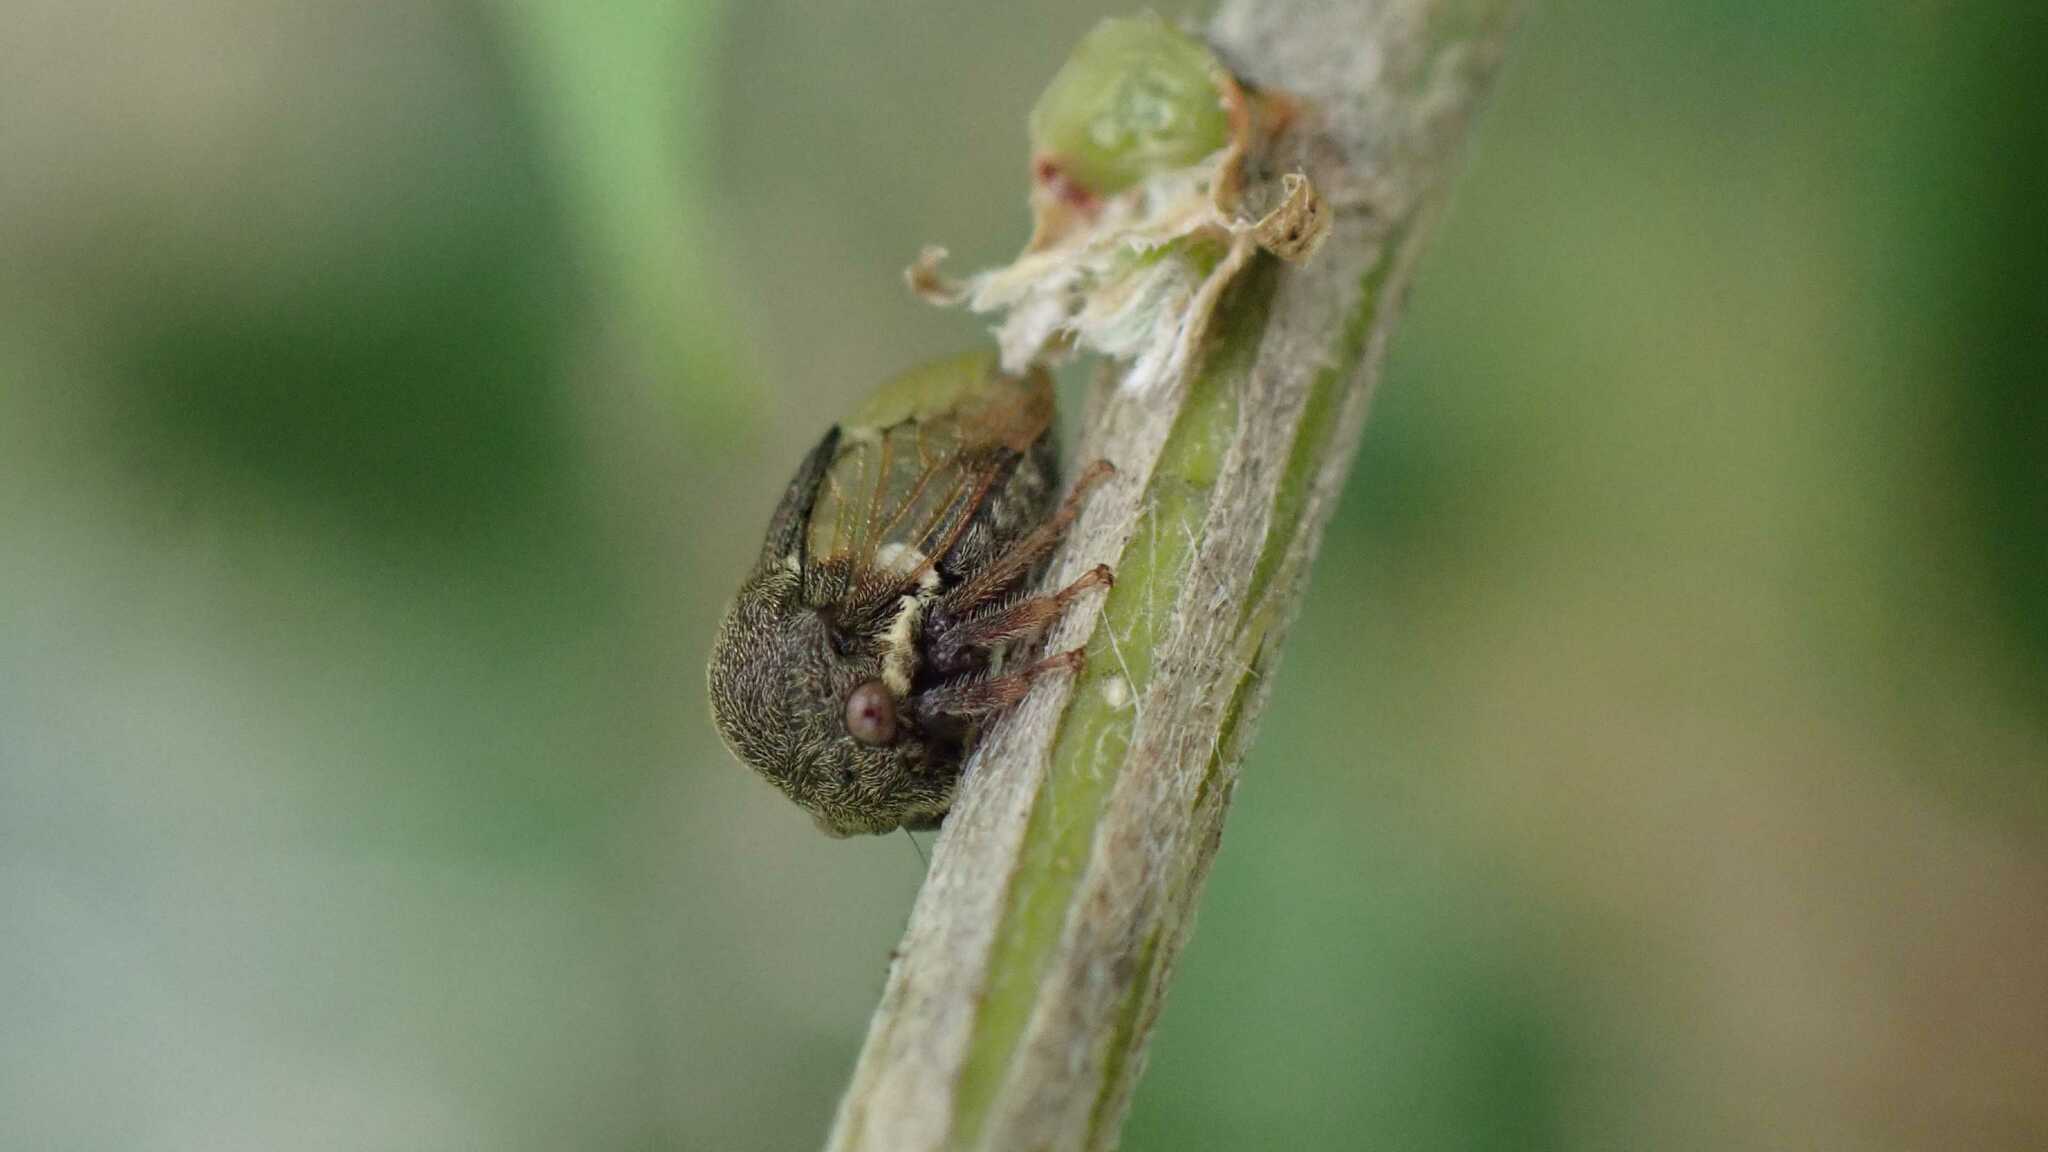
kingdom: Animalia
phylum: Arthropoda
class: Insecta
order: Hemiptera
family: Membracidae
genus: Gargara
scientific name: Gargara genistae
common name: Treehopper
